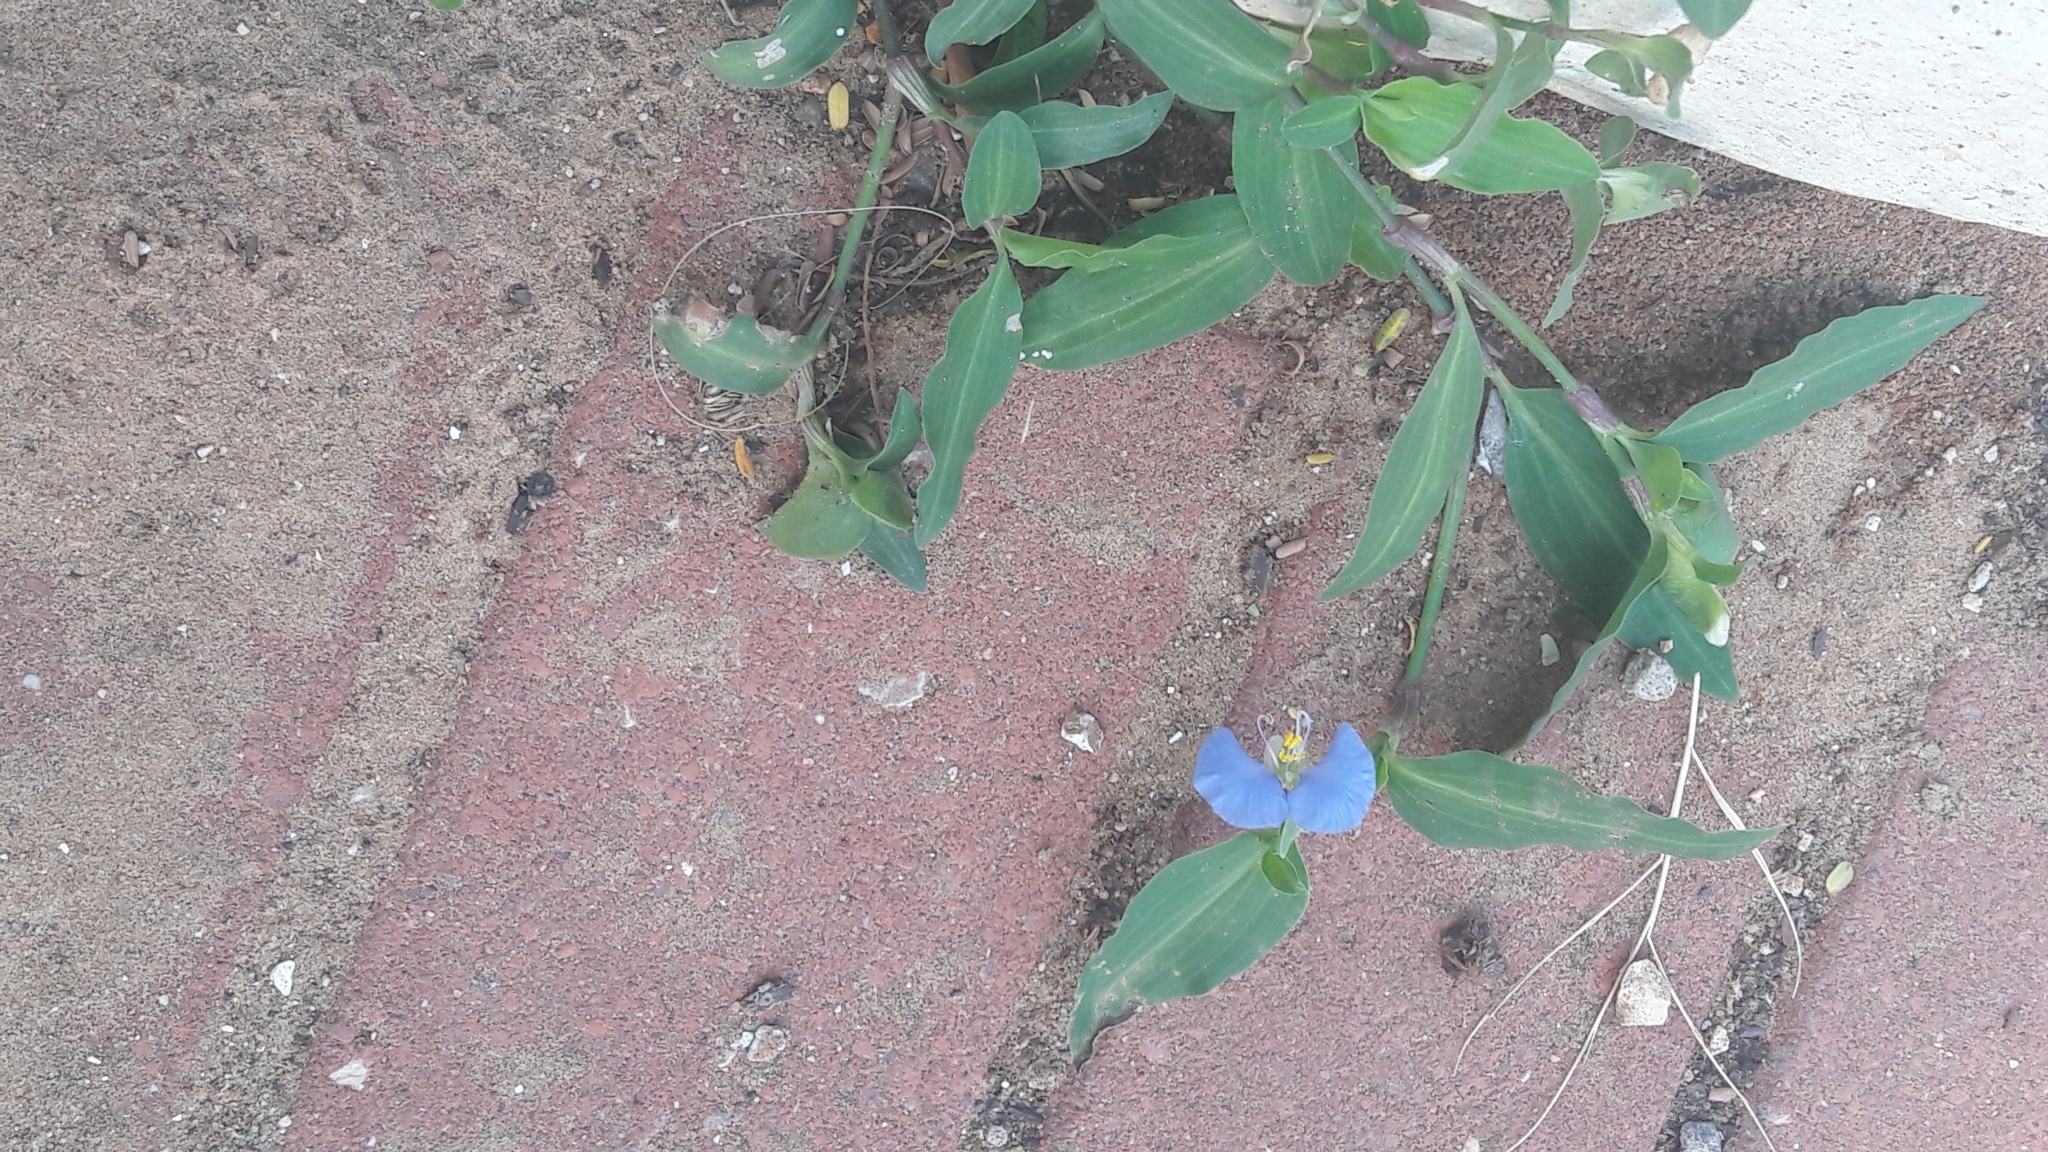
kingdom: Plantae
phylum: Tracheophyta
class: Liliopsida
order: Commelinales
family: Commelinaceae
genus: Commelina
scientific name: Commelina erecta
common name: Blousel blommetjie
